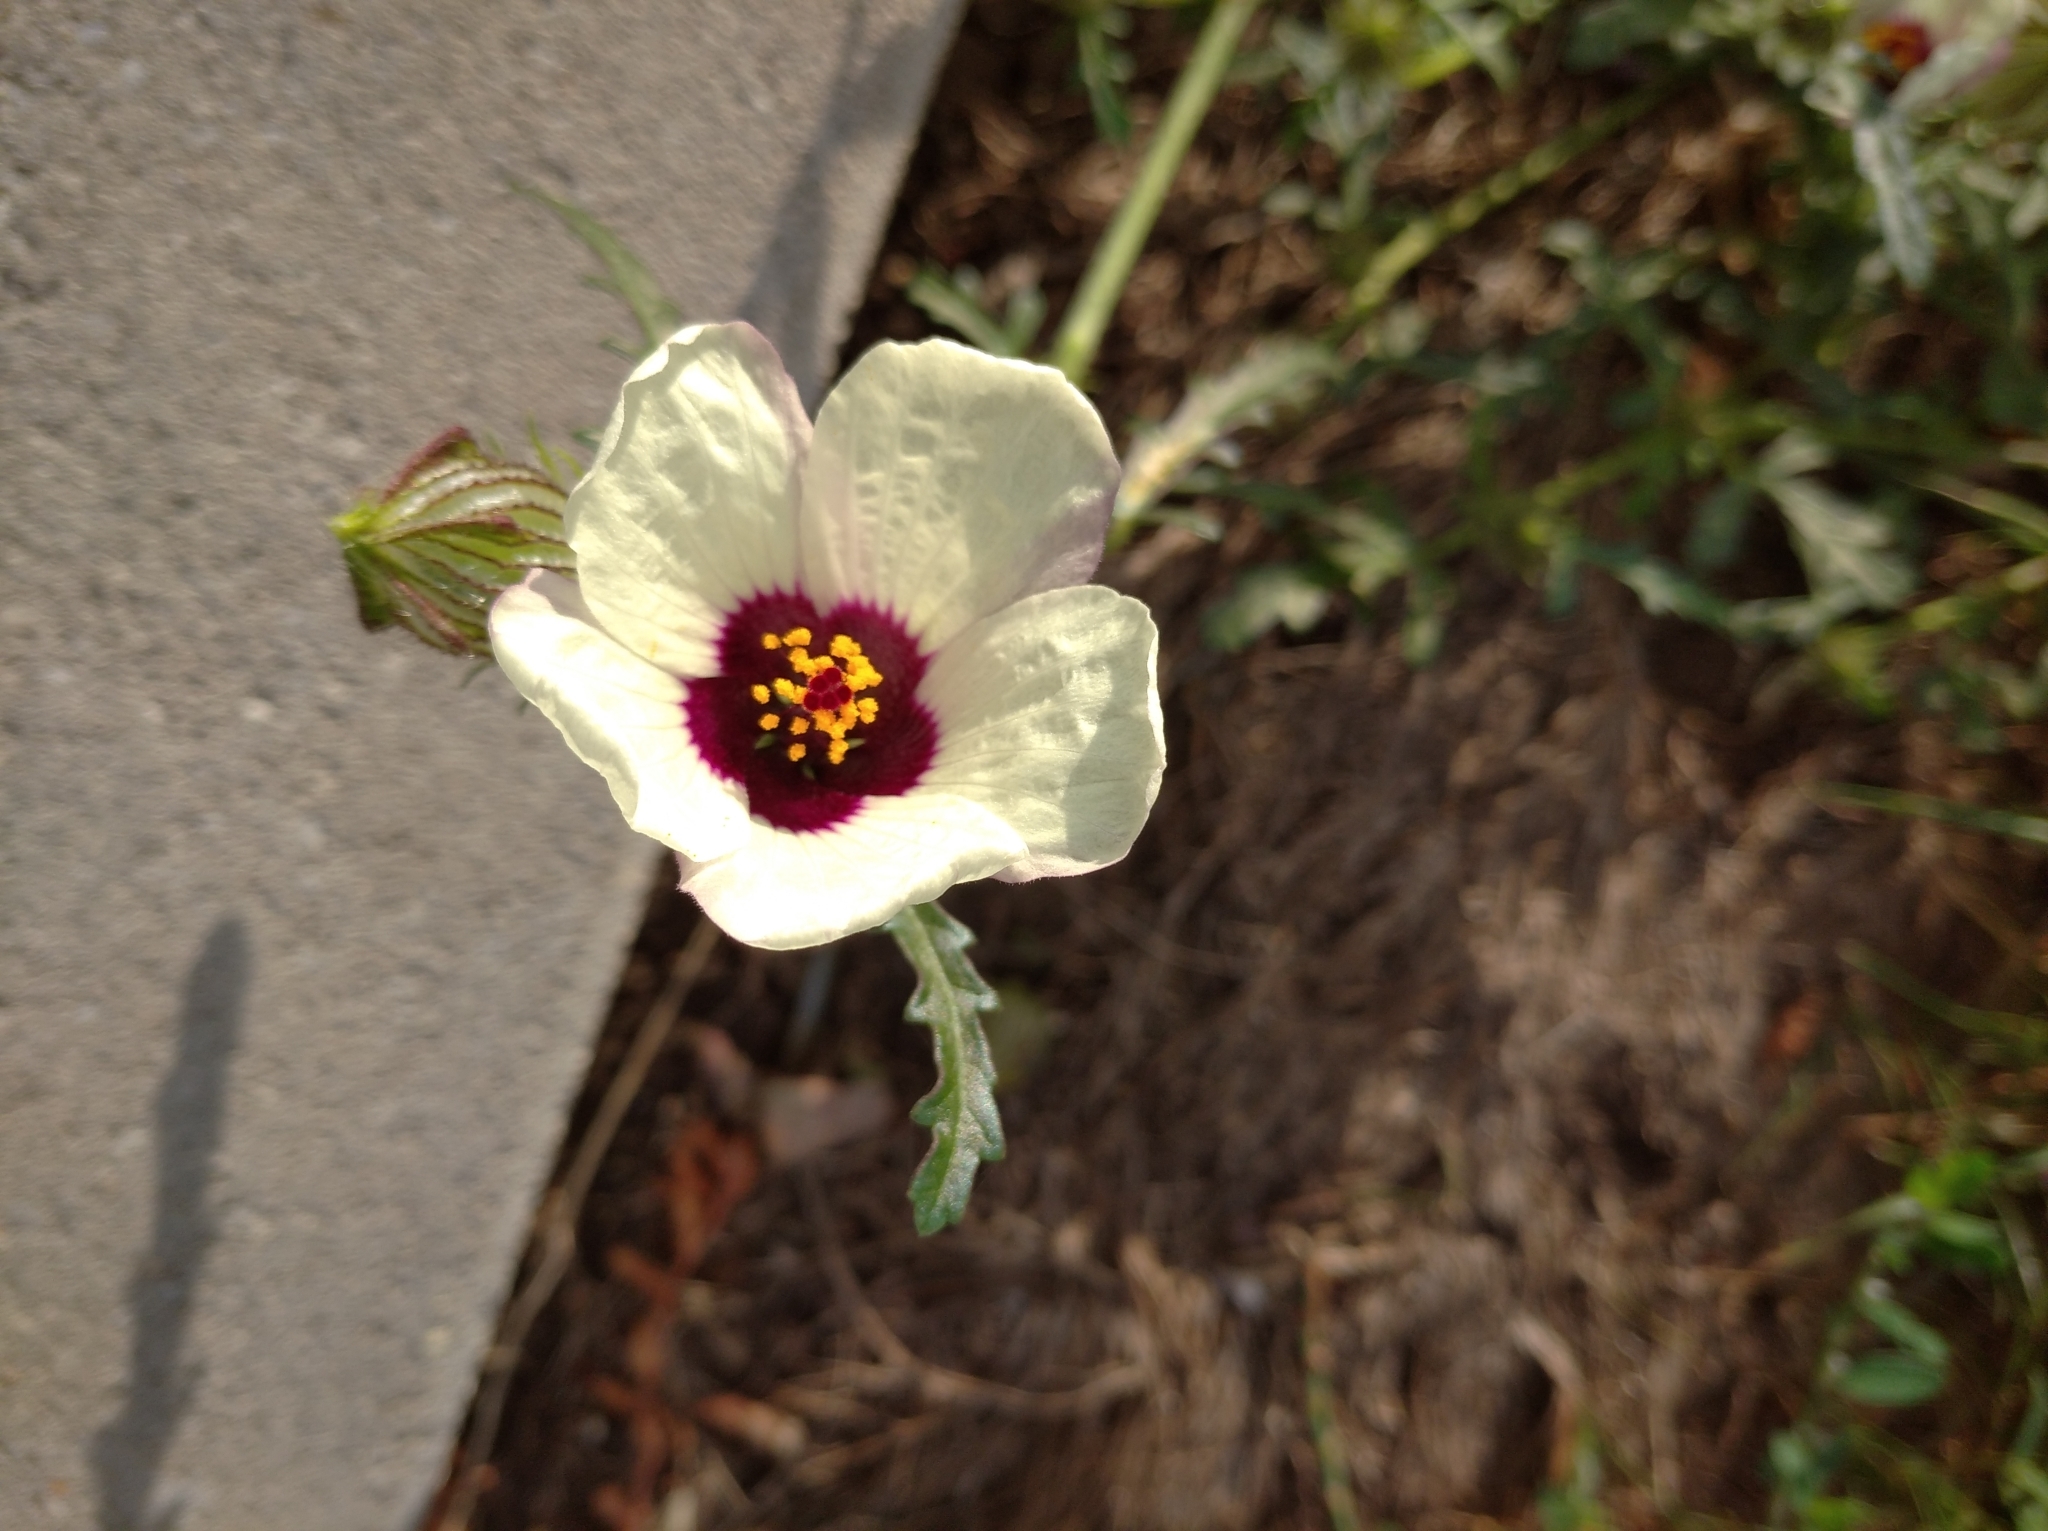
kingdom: Plantae
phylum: Tracheophyta
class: Magnoliopsida
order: Malvales
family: Malvaceae
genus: Hibiscus
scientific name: Hibiscus trionum
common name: Bladder ketmia
